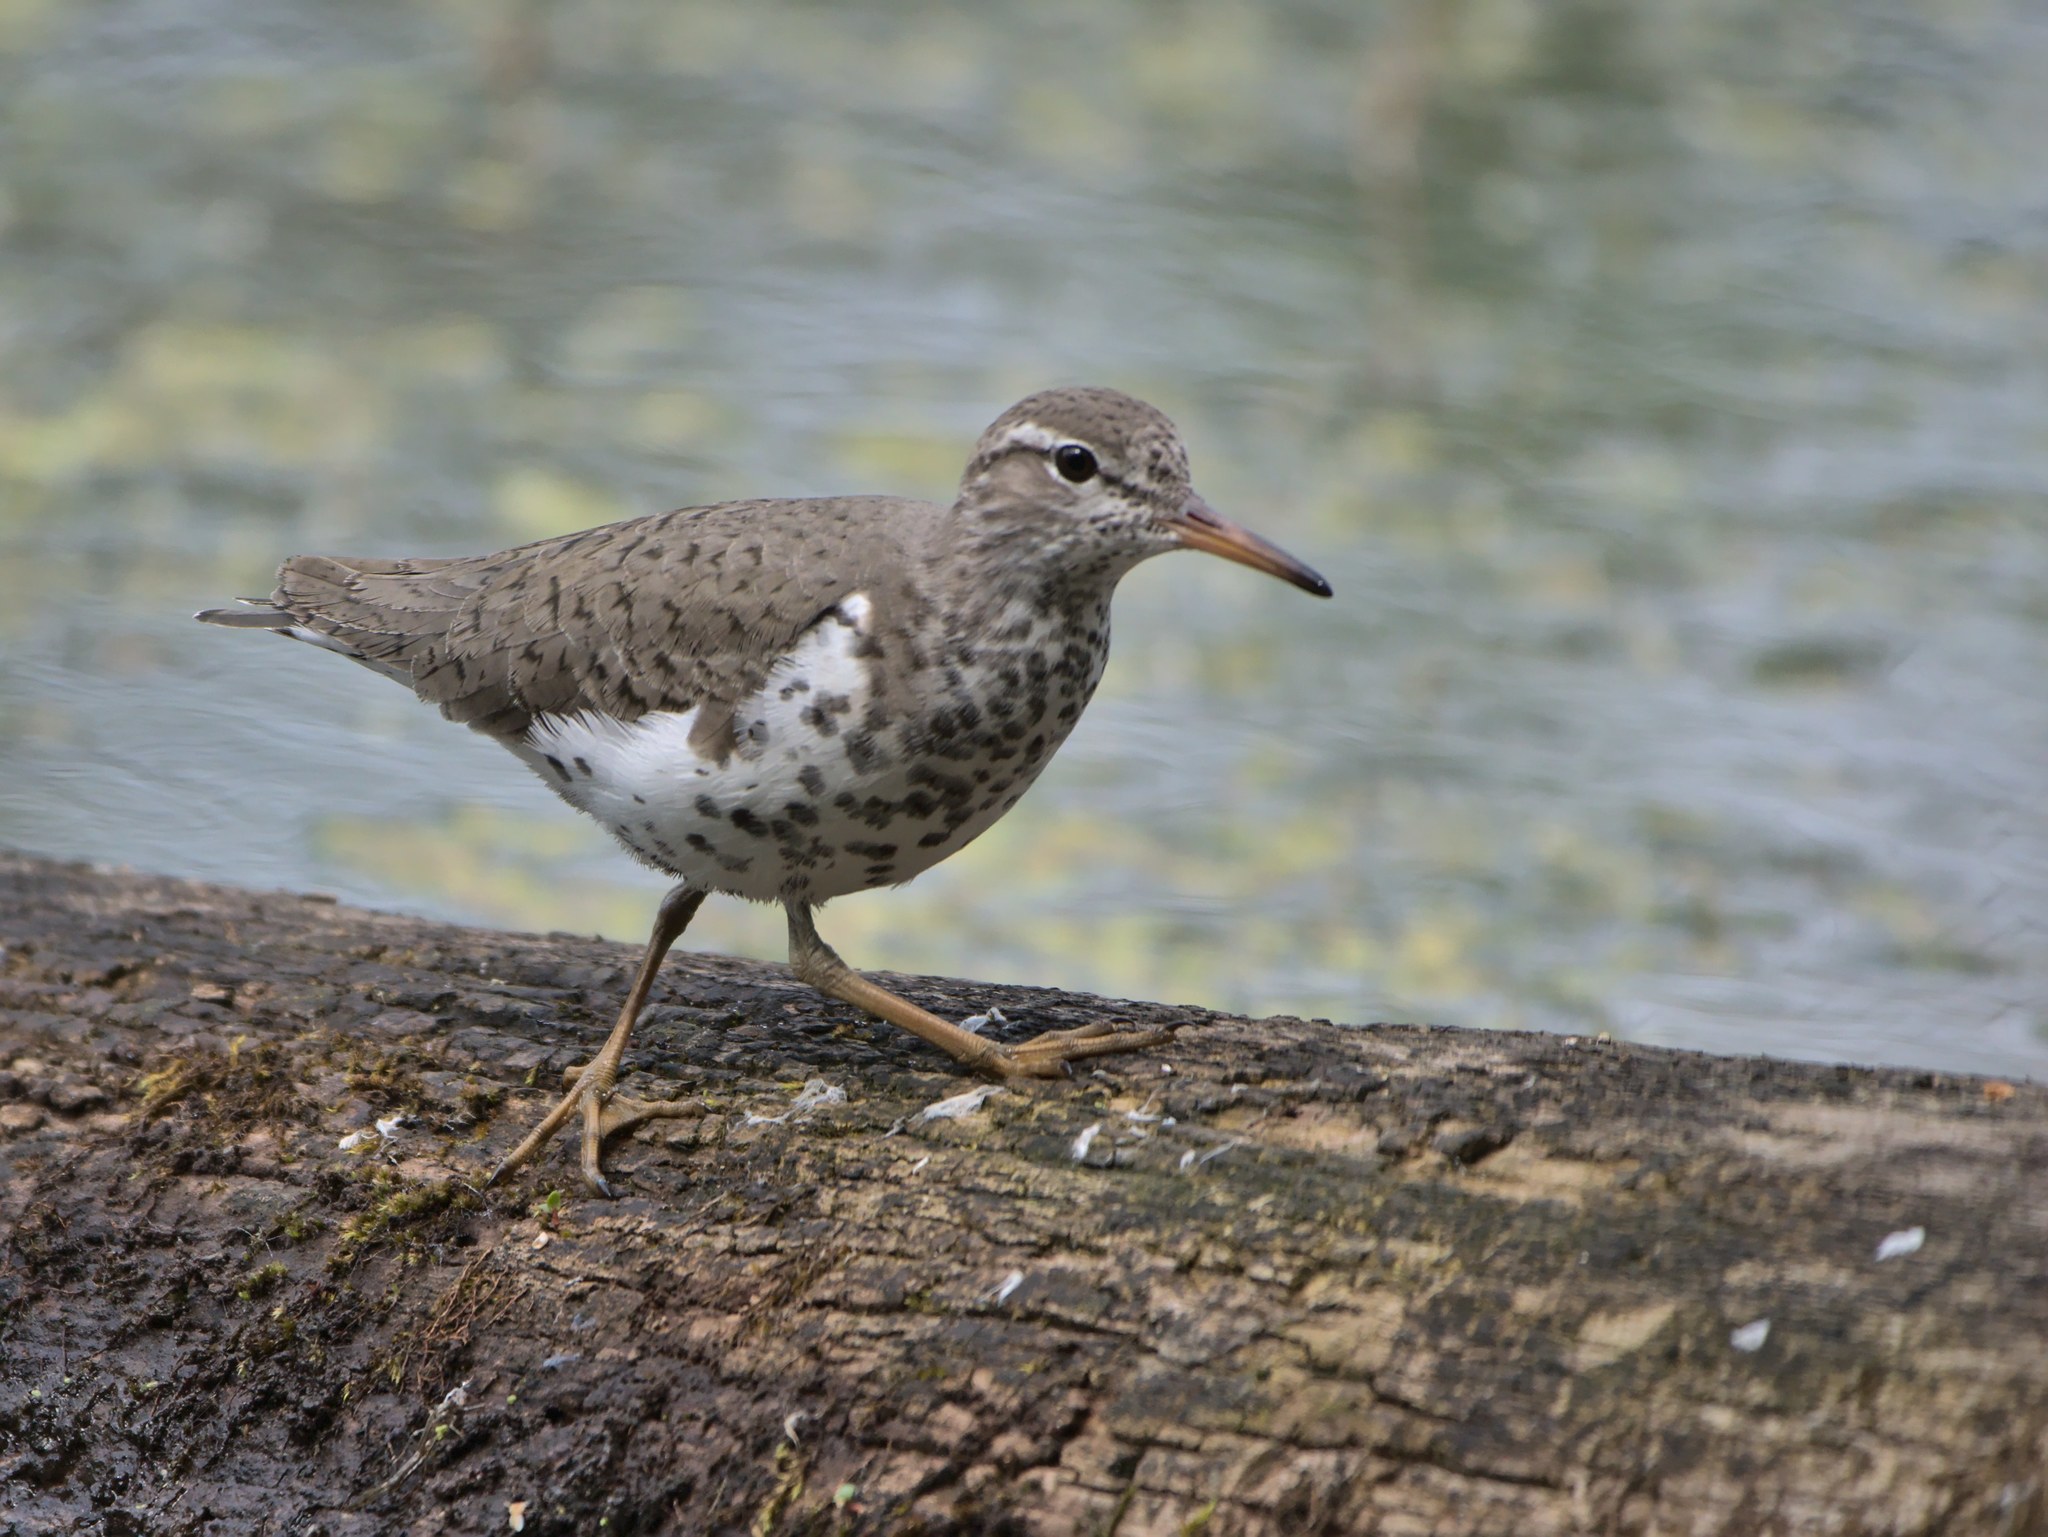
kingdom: Animalia
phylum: Chordata
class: Aves
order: Charadriiformes
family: Scolopacidae
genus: Actitis
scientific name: Actitis macularius
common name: Spotted sandpiper
